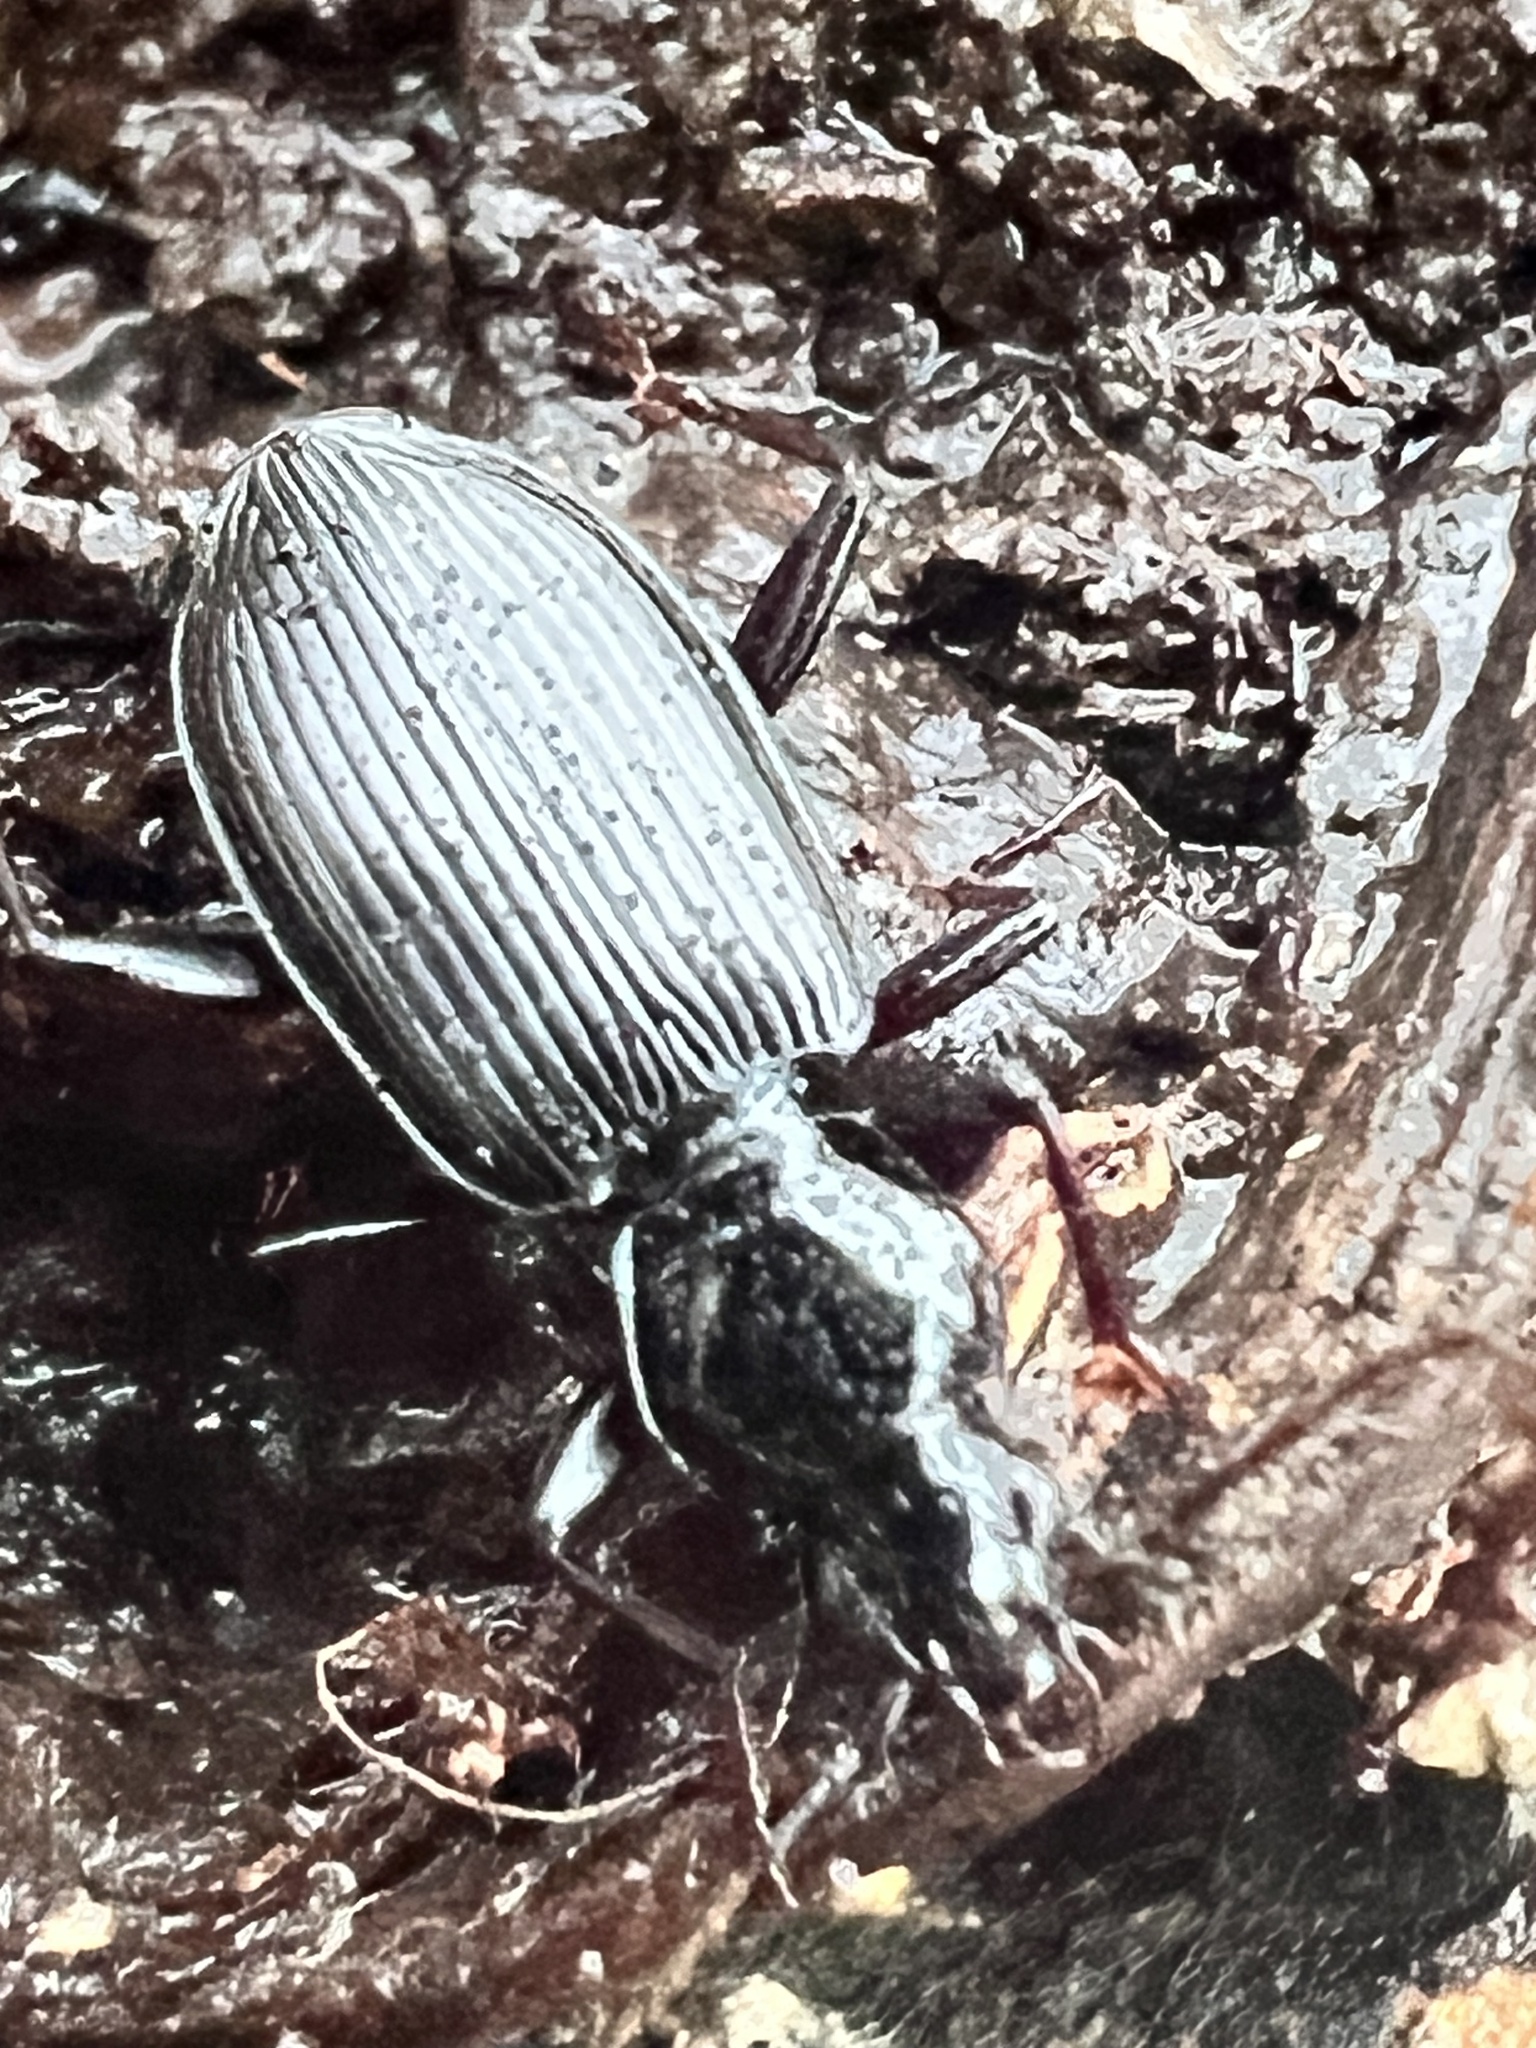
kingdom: Animalia
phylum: Arthropoda
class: Insecta
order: Coleoptera
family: Carabidae
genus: Platynus
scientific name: Platynus decentis
